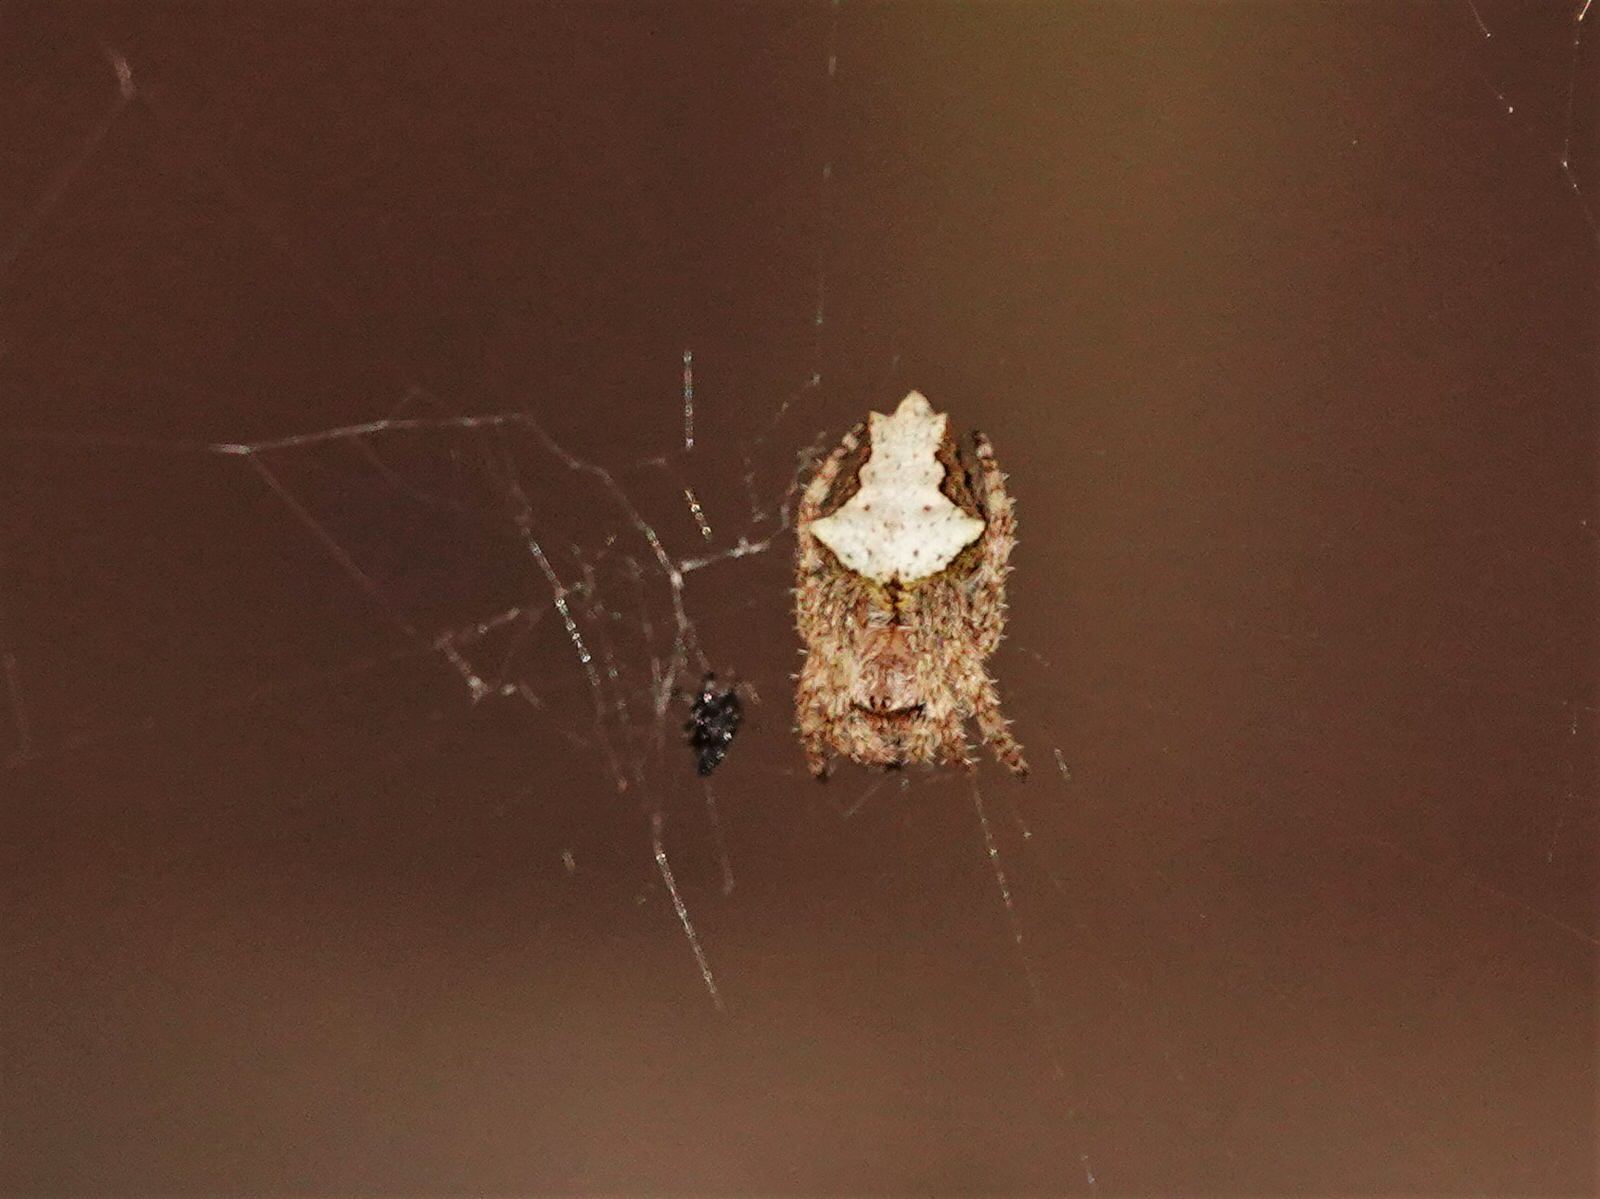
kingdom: Animalia
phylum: Arthropoda
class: Arachnida
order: Araneae
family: Araneidae
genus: Eriophora
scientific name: Eriophora pustulosa
